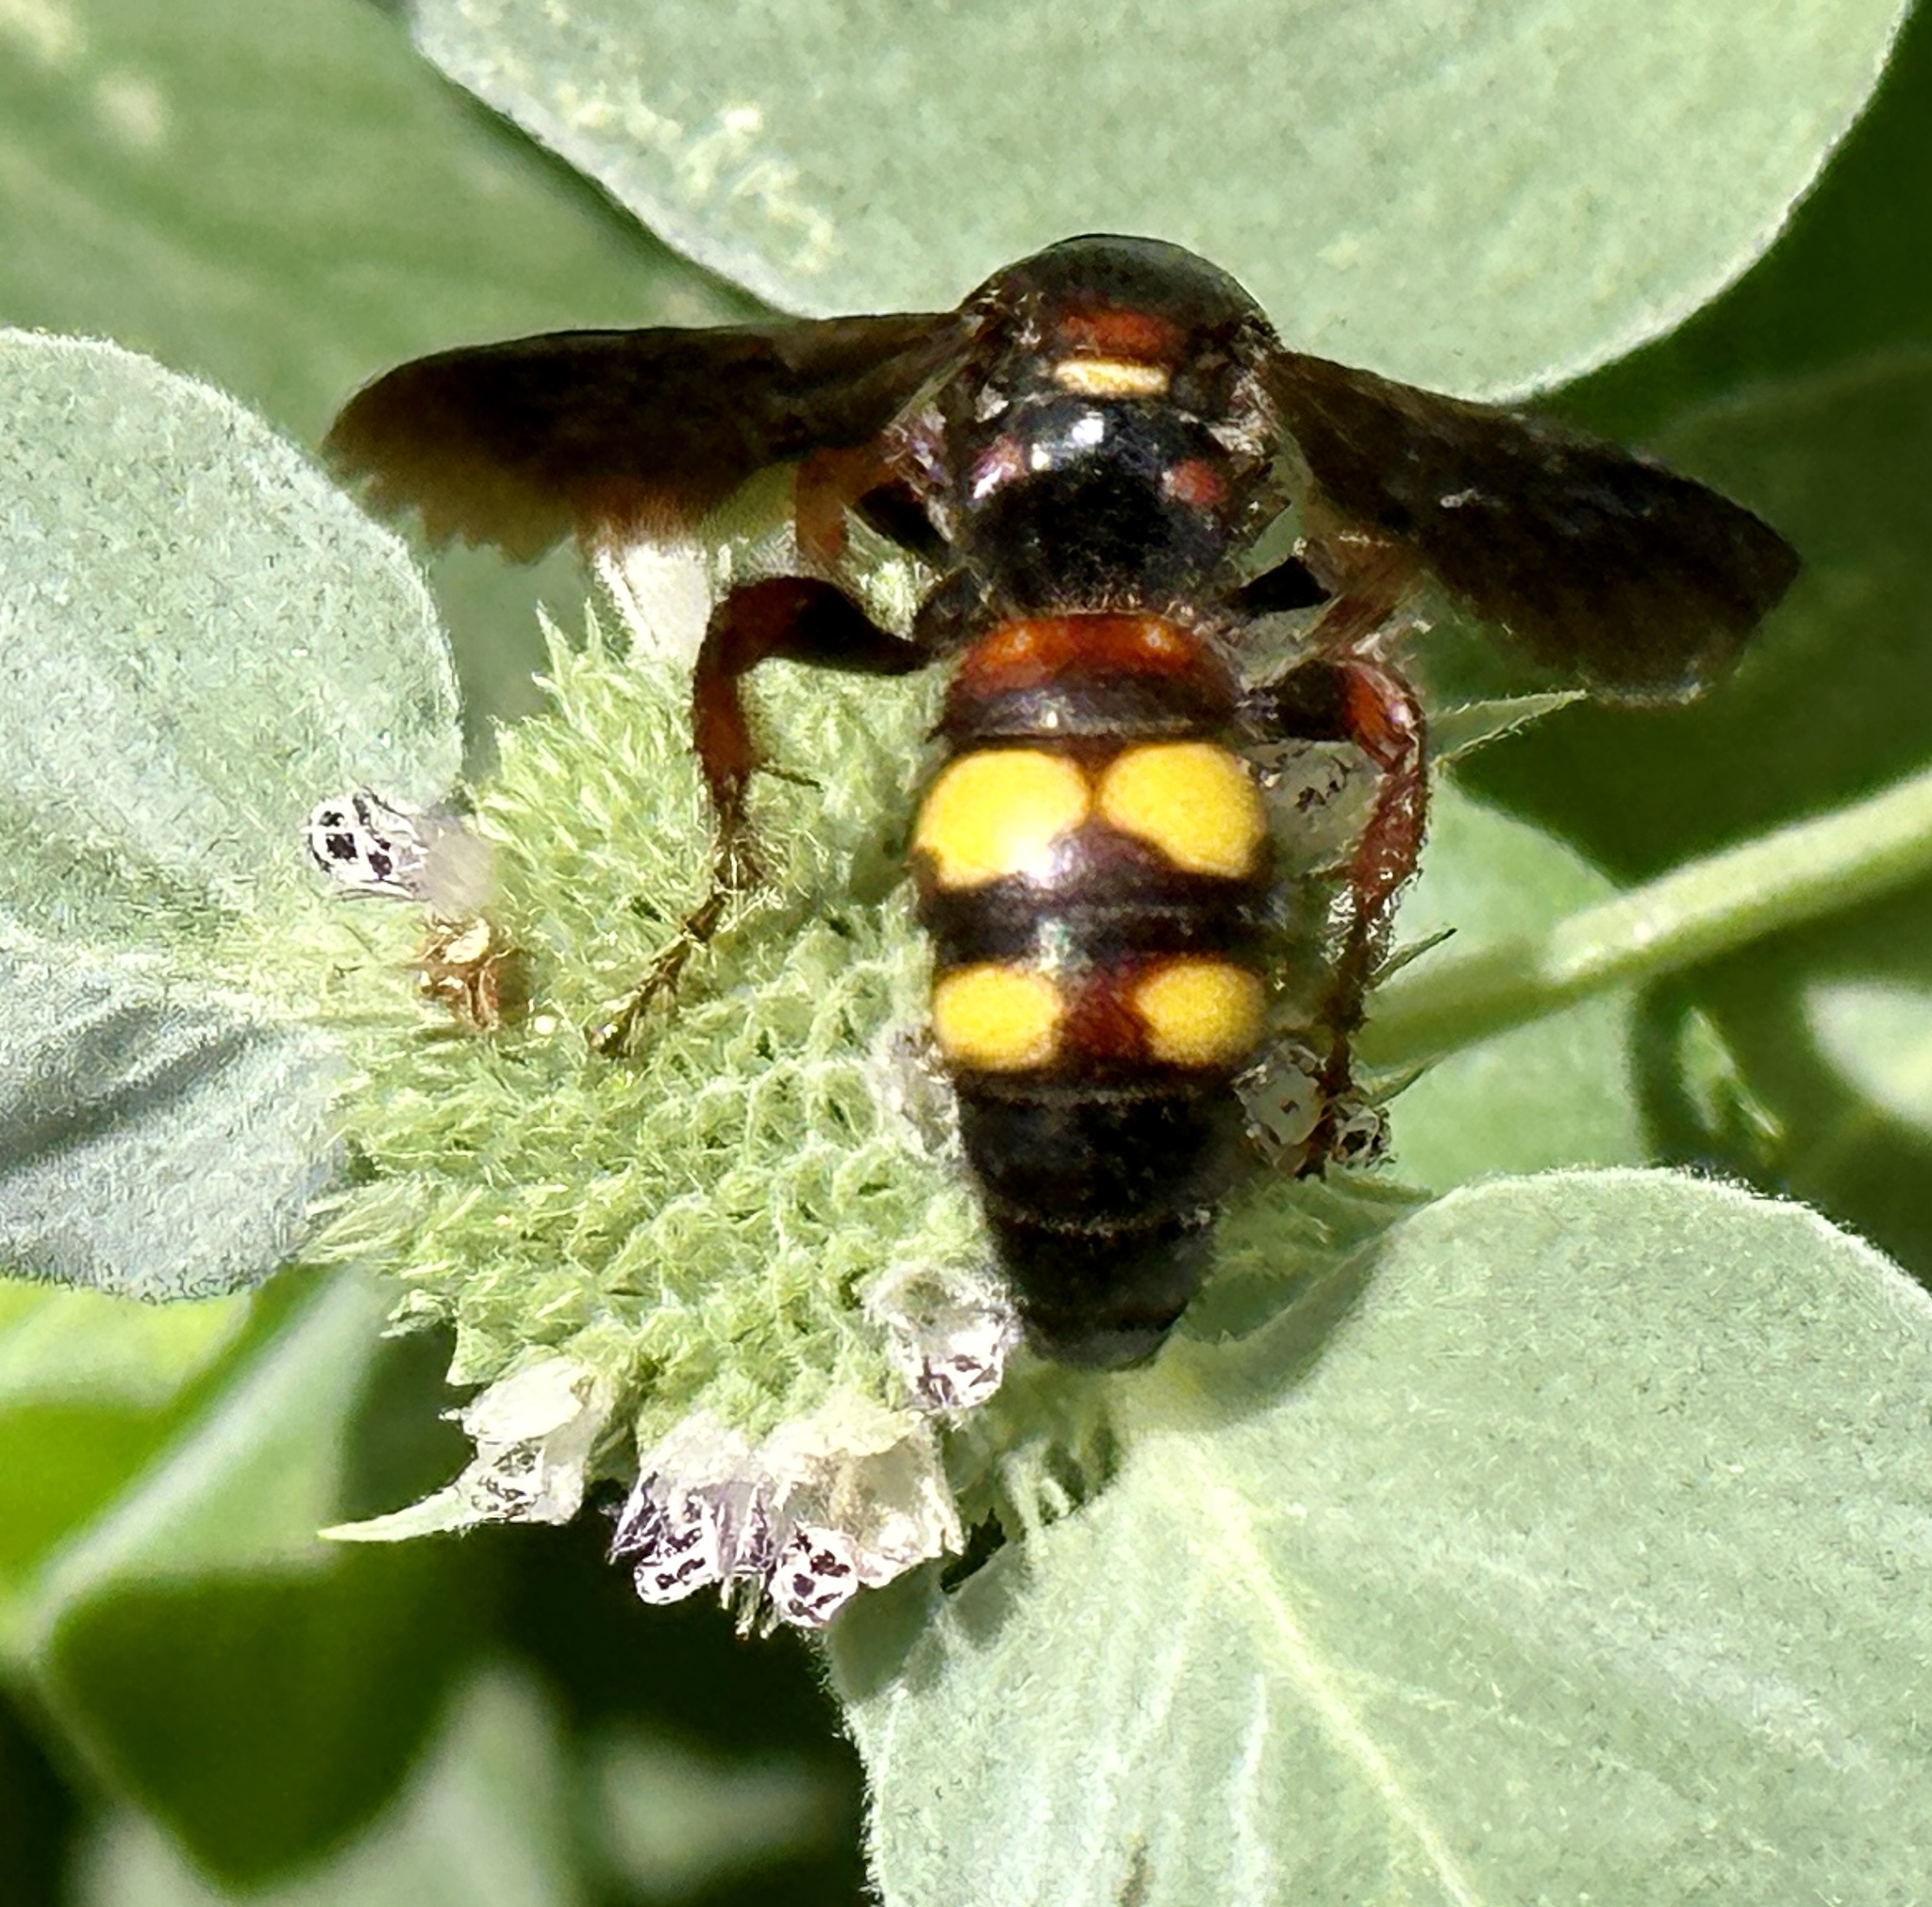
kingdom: Animalia
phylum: Arthropoda
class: Insecta
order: Hymenoptera
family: Scoliidae
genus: Scolia
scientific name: Scolia nobilitata
